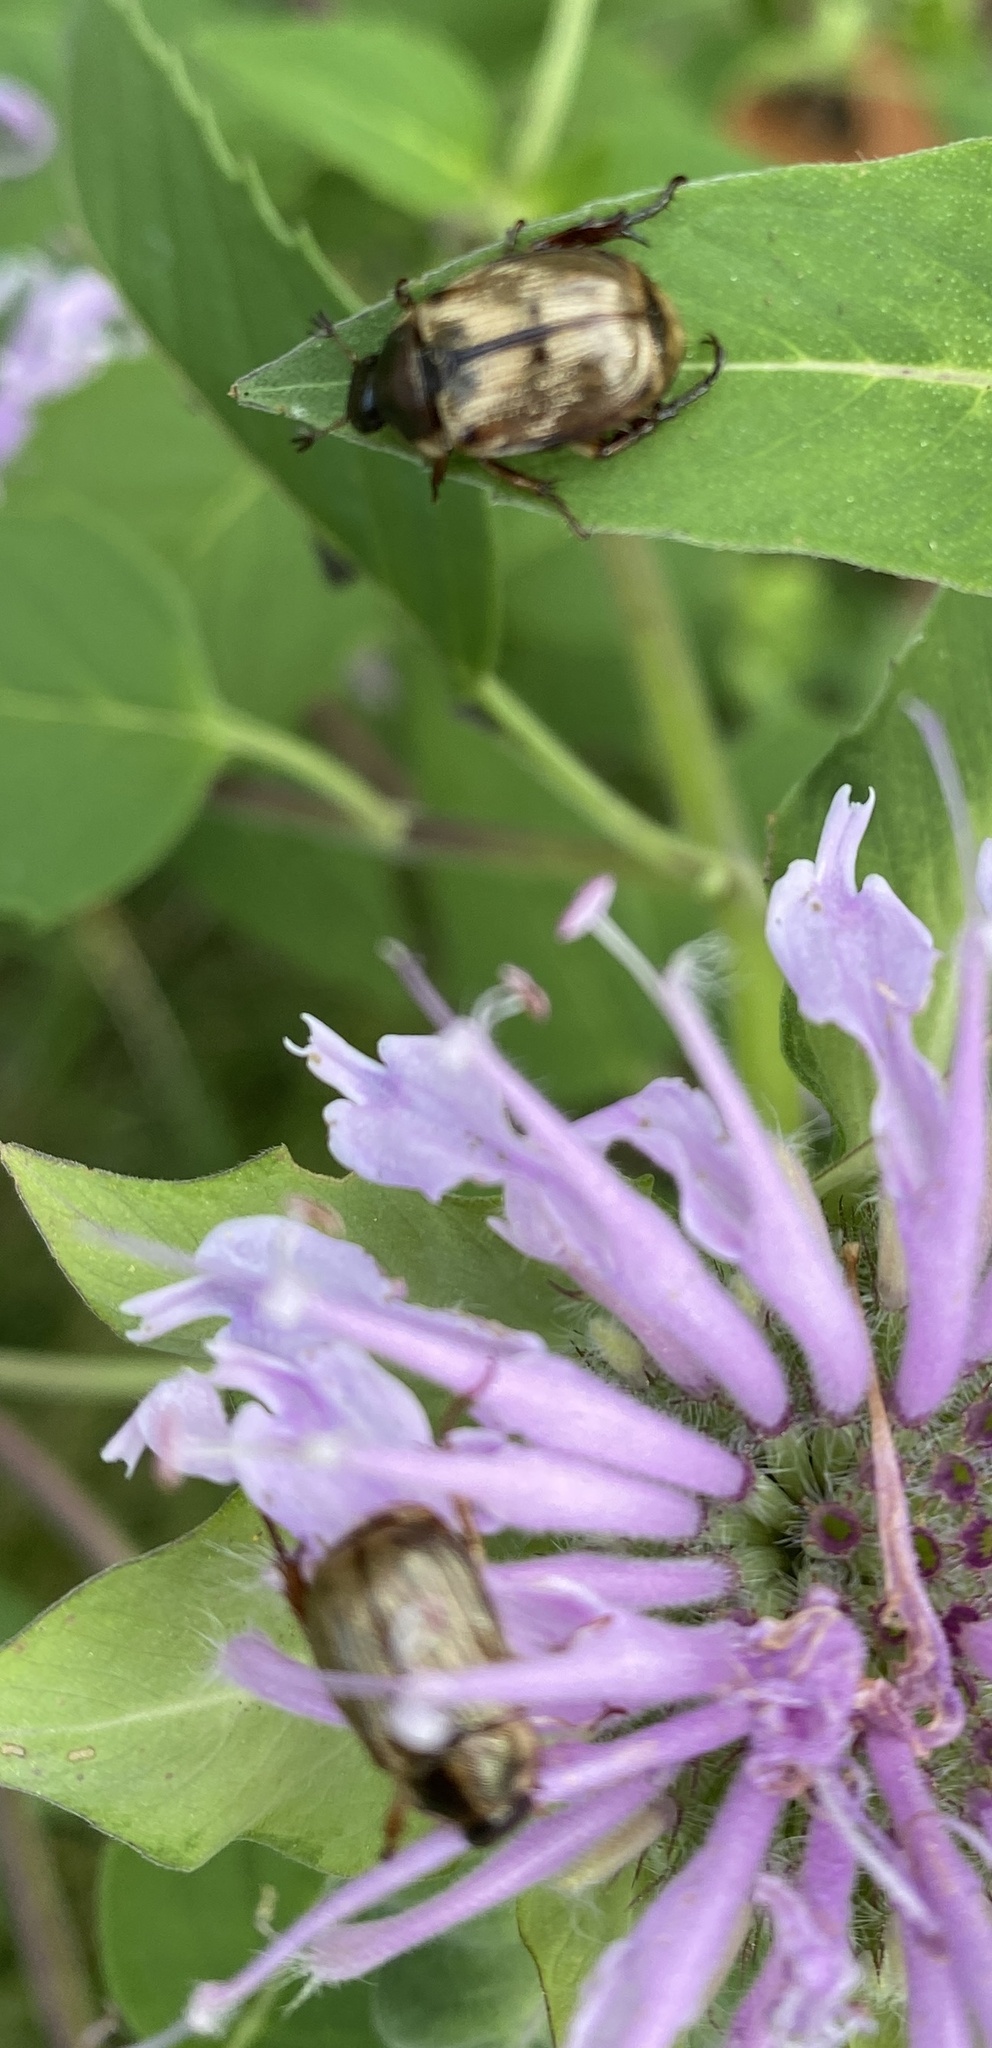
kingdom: Animalia
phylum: Arthropoda
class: Insecta
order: Coleoptera
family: Scarabaeidae
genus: Exomala
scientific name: Exomala orientalis
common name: Oriental beetle
